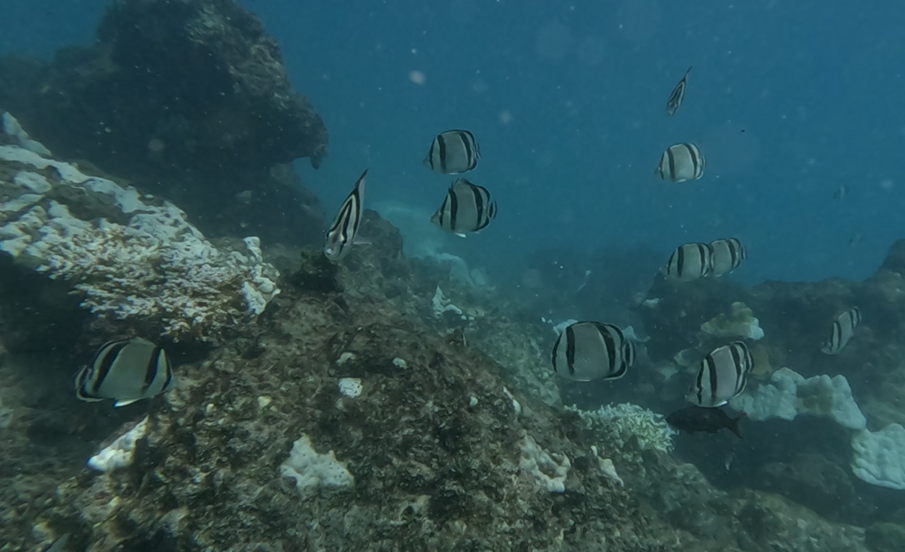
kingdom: Animalia
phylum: Chordata
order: Perciformes
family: Chaetodontidae
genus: Chaetodon
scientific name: Chaetodon humeralis
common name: Threebanded butterflyfish
